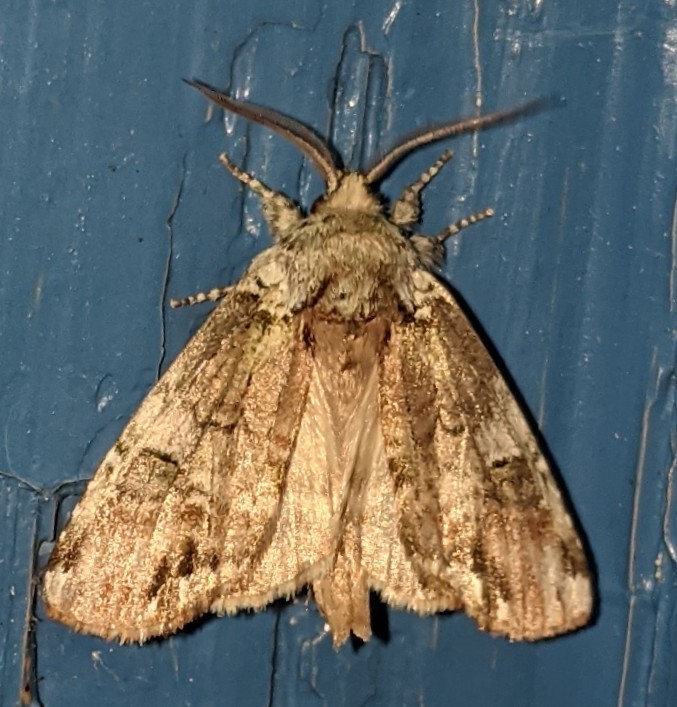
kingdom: Animalia
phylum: Arthropoda
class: Insecta
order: Lepidoptera
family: Notodontidae
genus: Schizura
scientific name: Schizura
